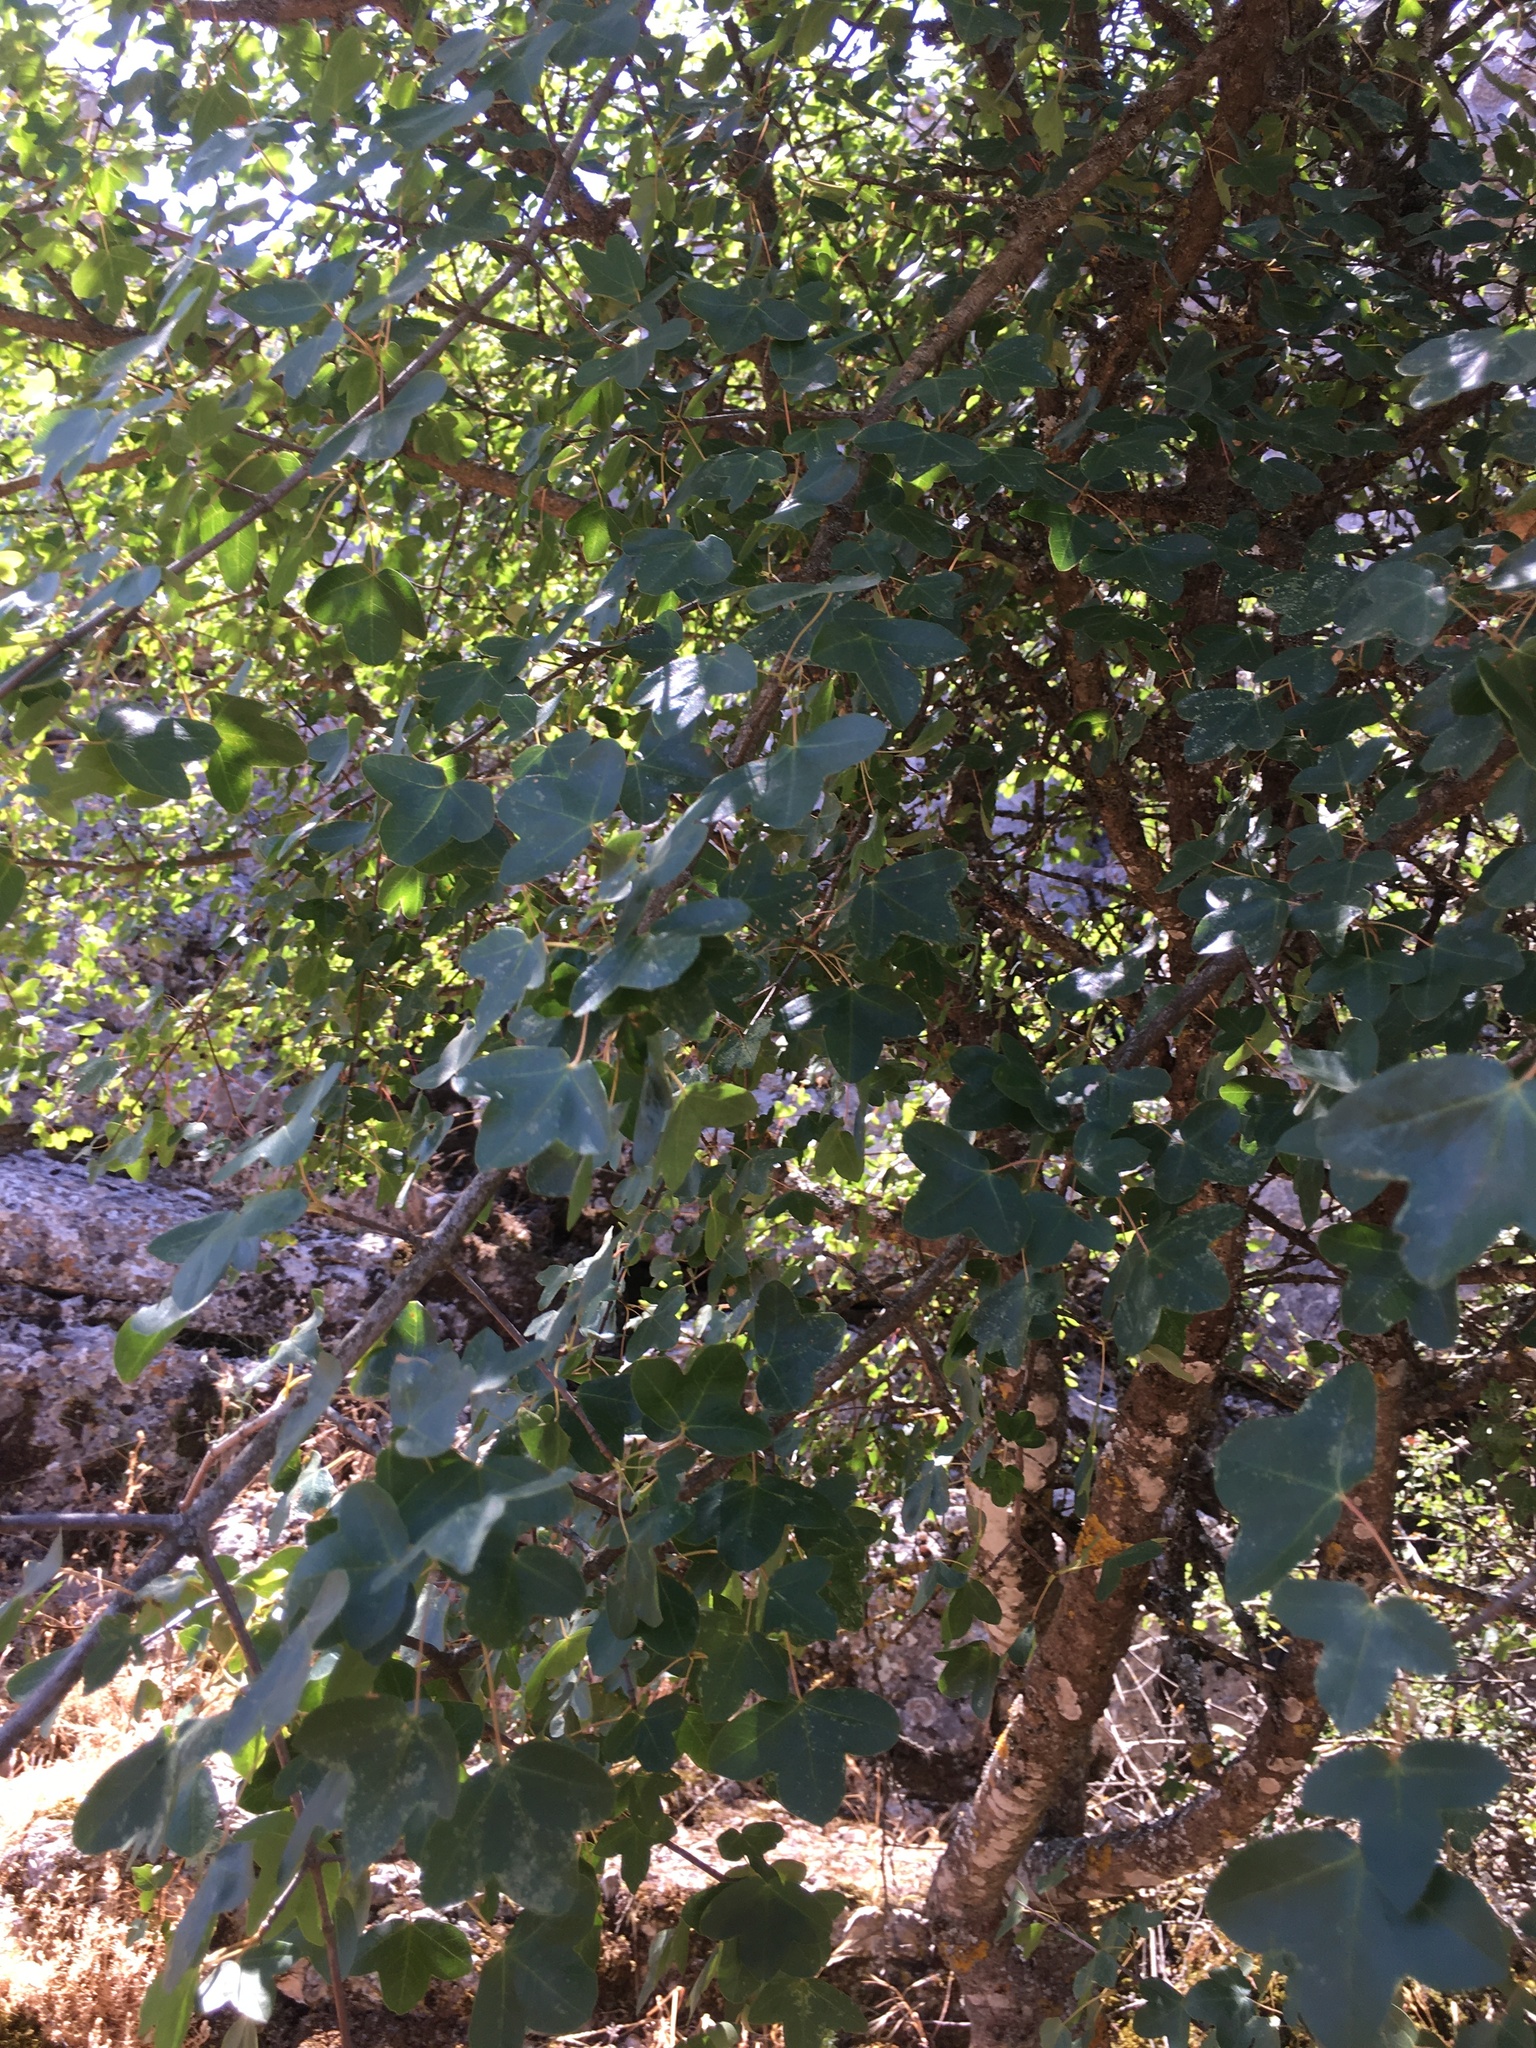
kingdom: Plantae
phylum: Tracheophyta
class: Magnoliopsida
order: Sapindales
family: Sapindaceae
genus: Acer
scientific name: Acer monspessulanum
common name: Montpellier maple
